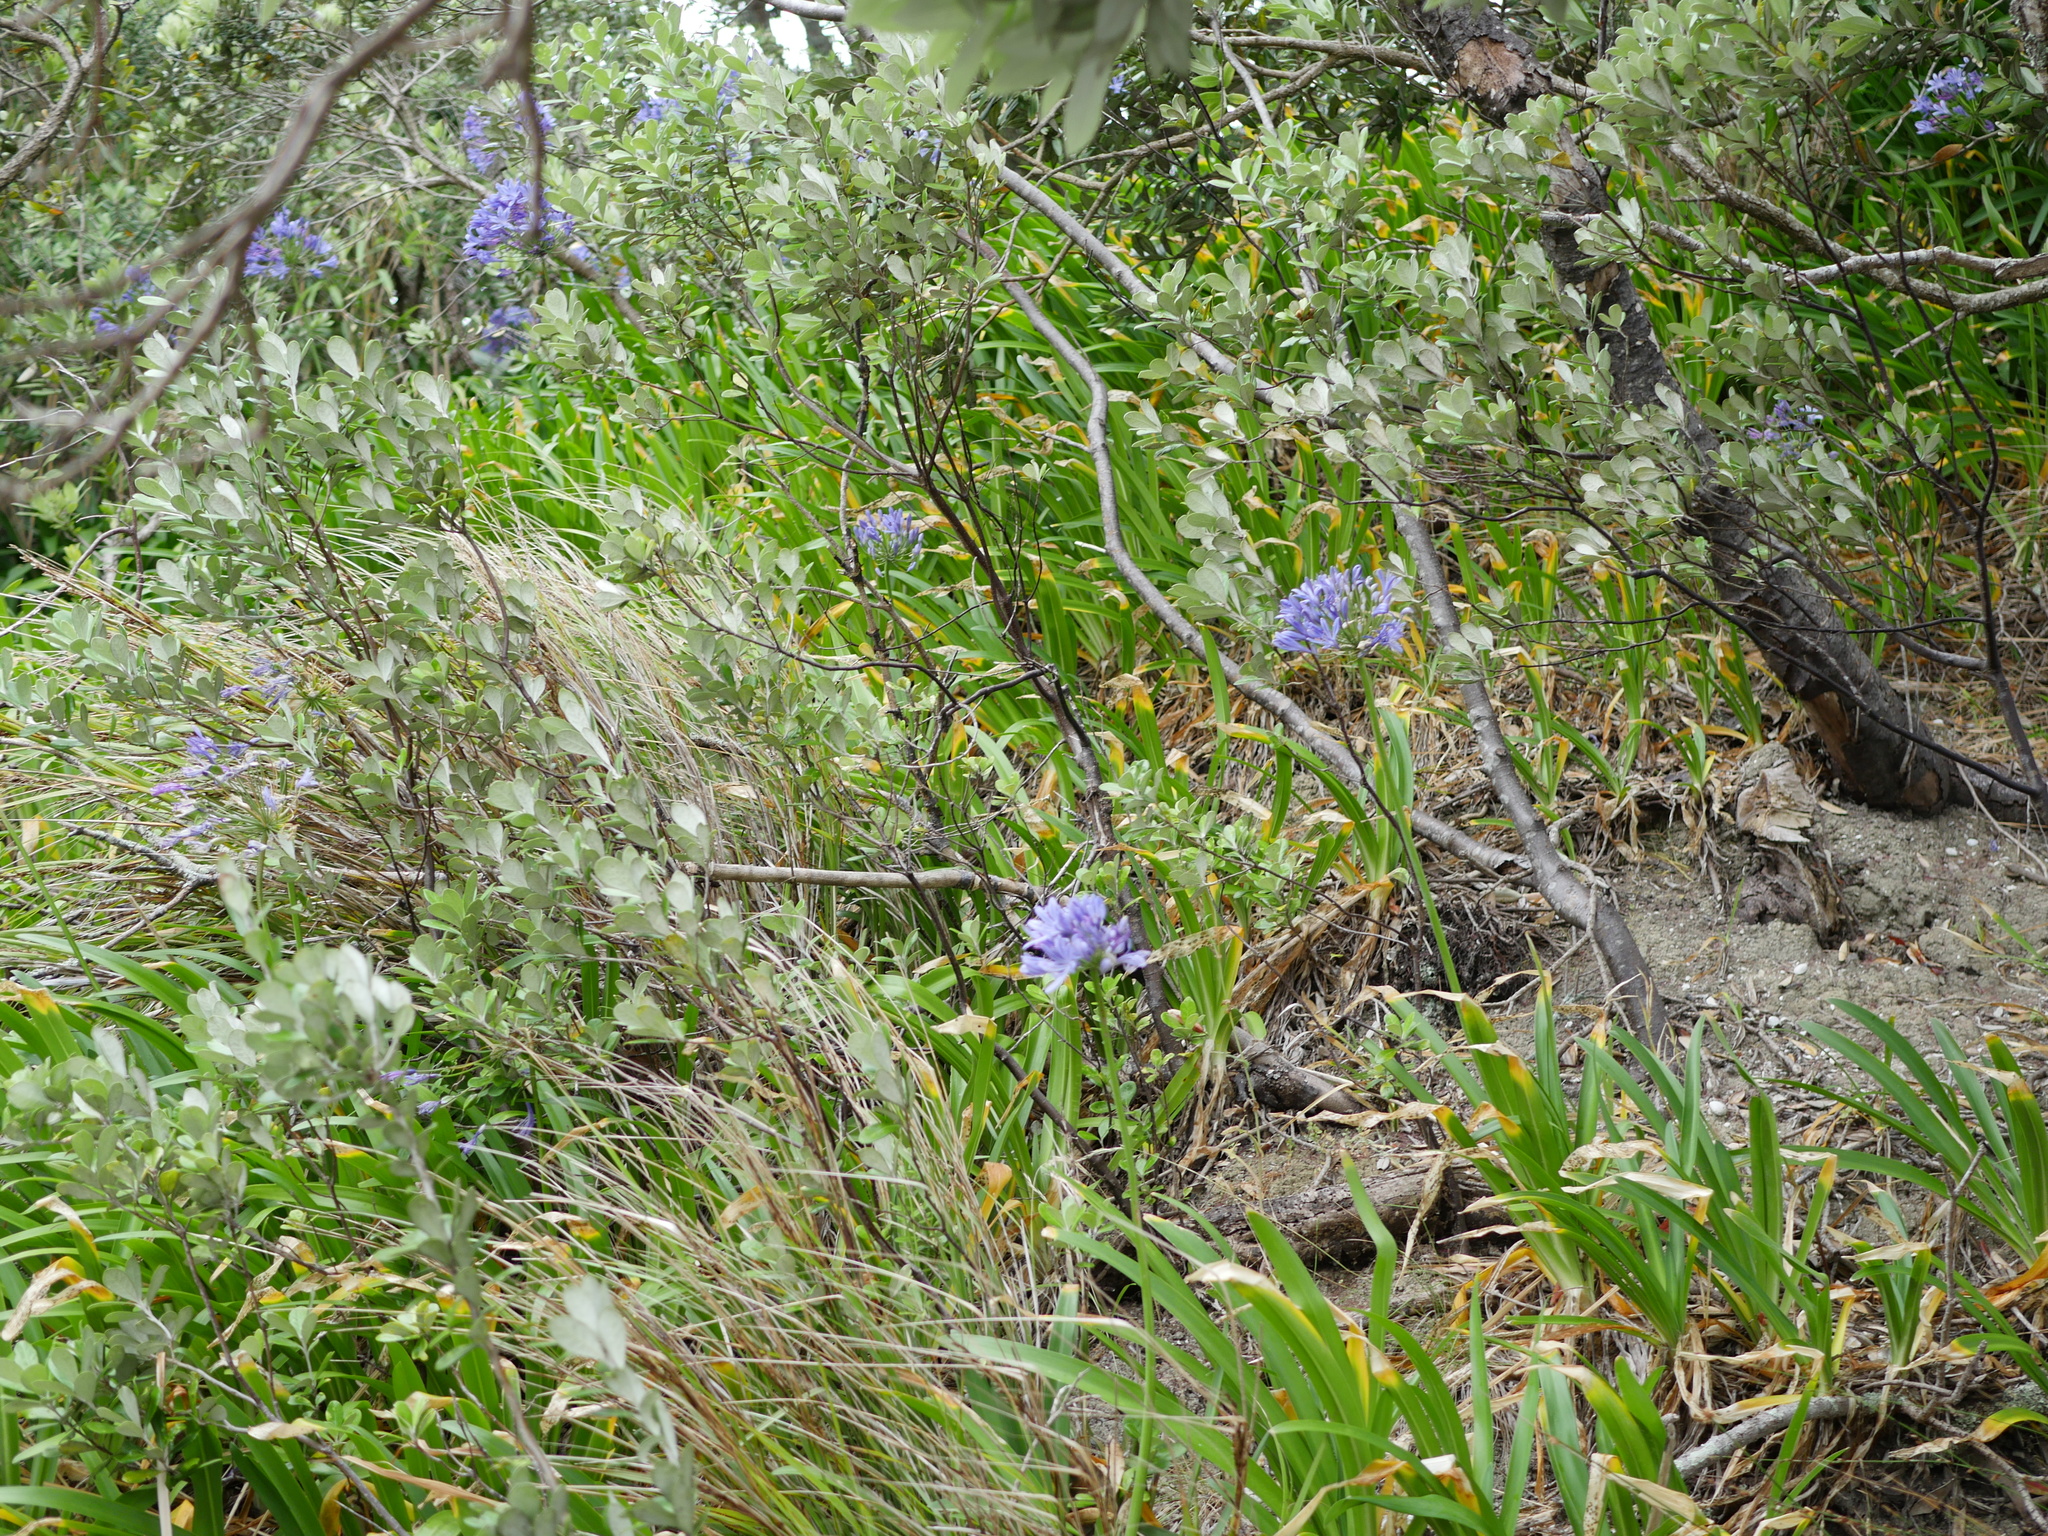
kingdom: Plantae
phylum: Tracheophyta
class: Liliopsida
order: Asparagales
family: Amaryllidaceae
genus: Agapanthus
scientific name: Agapanthus praecox
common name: African-lily
